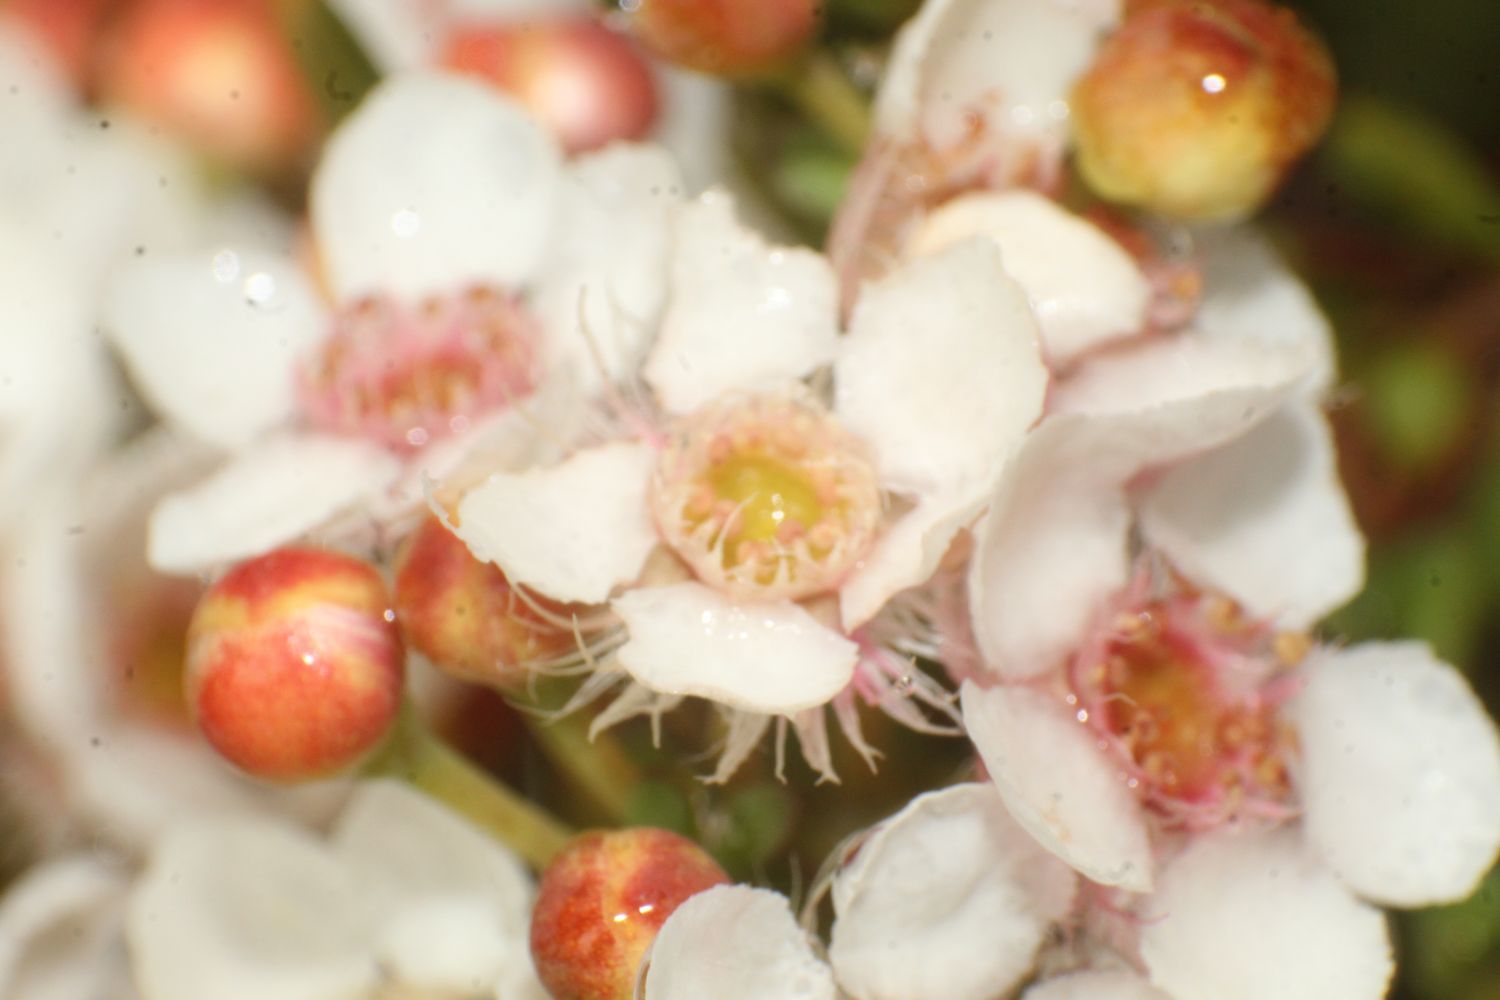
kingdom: Plantae
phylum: Tracheophyta
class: Magnoliopsida
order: Myrtales
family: Myrtaceae
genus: Verticordia
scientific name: Verticordia habrantha
